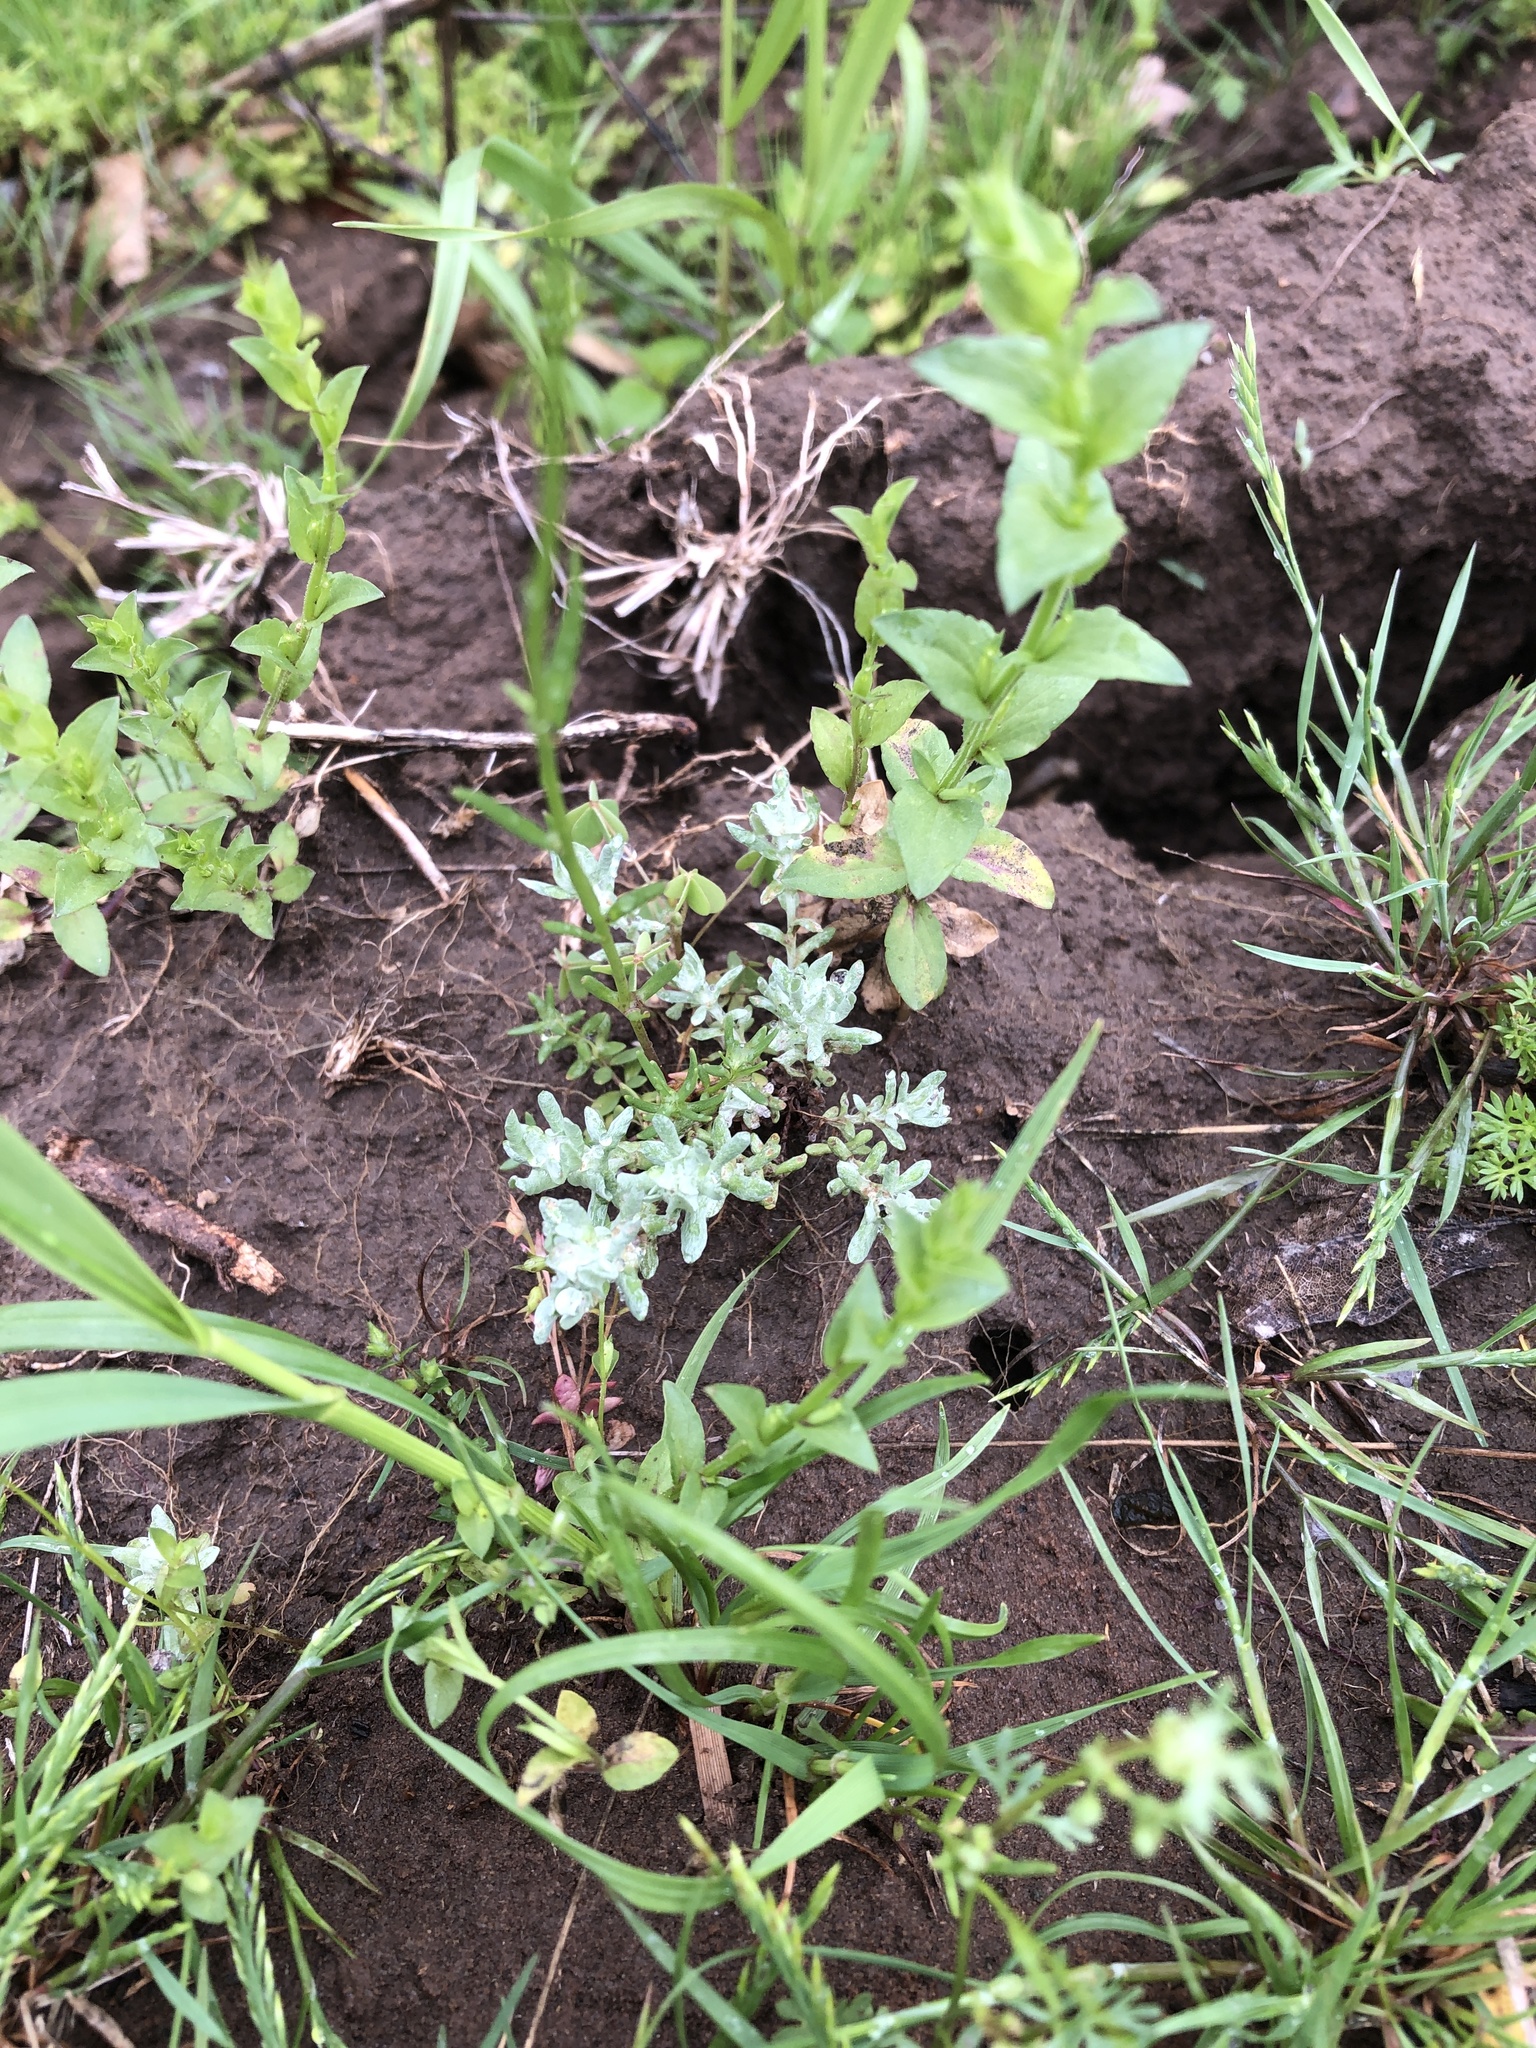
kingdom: Plantae
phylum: Tracheophyta
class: Magnoliopsida
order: Asterales
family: Asteraceae
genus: Diaperia
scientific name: Diaperia prolifera
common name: Big-head rabbit-tobacco
